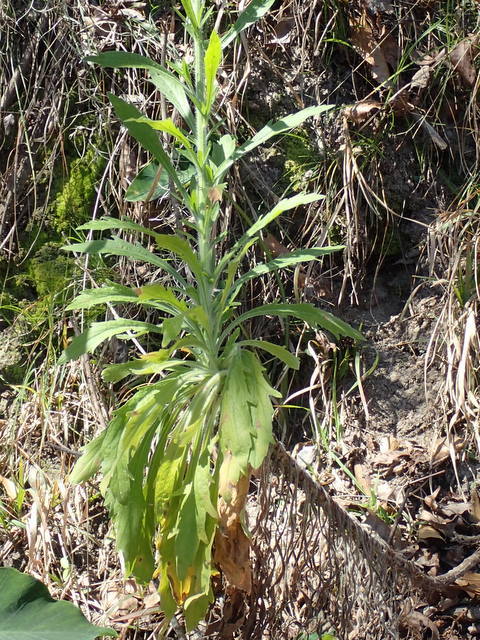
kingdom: Plantae
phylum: Tracheophyta
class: Magnoliopsida
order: Asterales
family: Asteraceae
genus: Erigeron
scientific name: Erigeron sumatrensis
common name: Daisy
